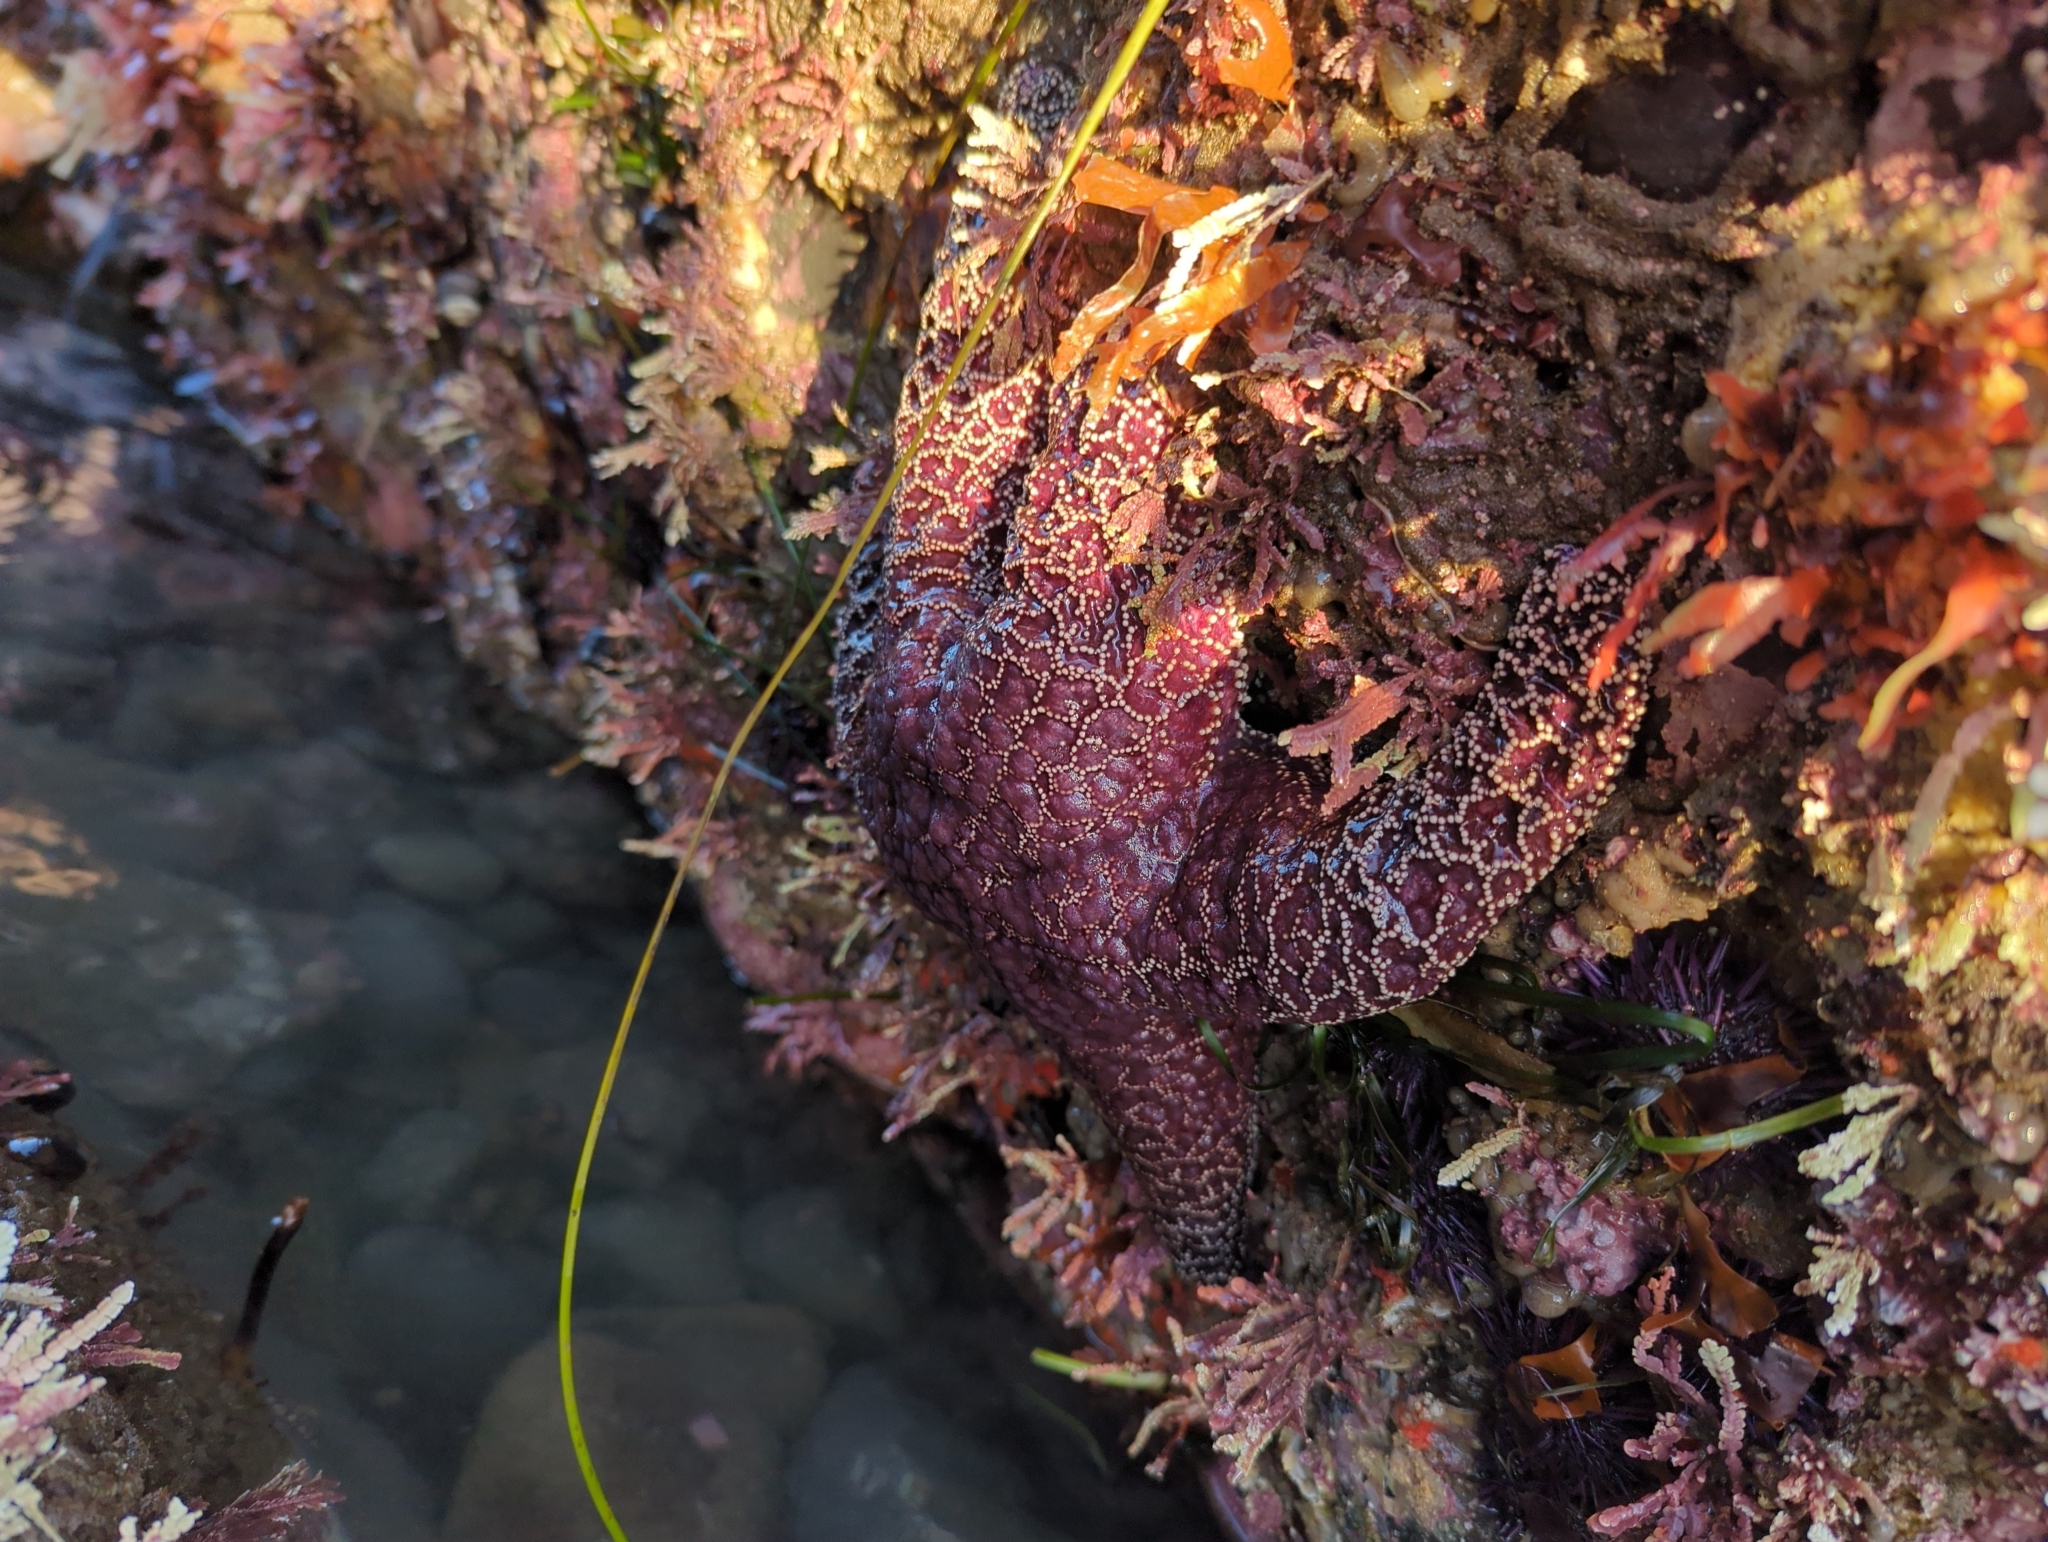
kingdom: Animalia
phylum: Echinodermata
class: Asteroidea
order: Forcipulatida
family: Asteriidae
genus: Pisaster
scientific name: Pisaster ochraceus
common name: Ochre stars
